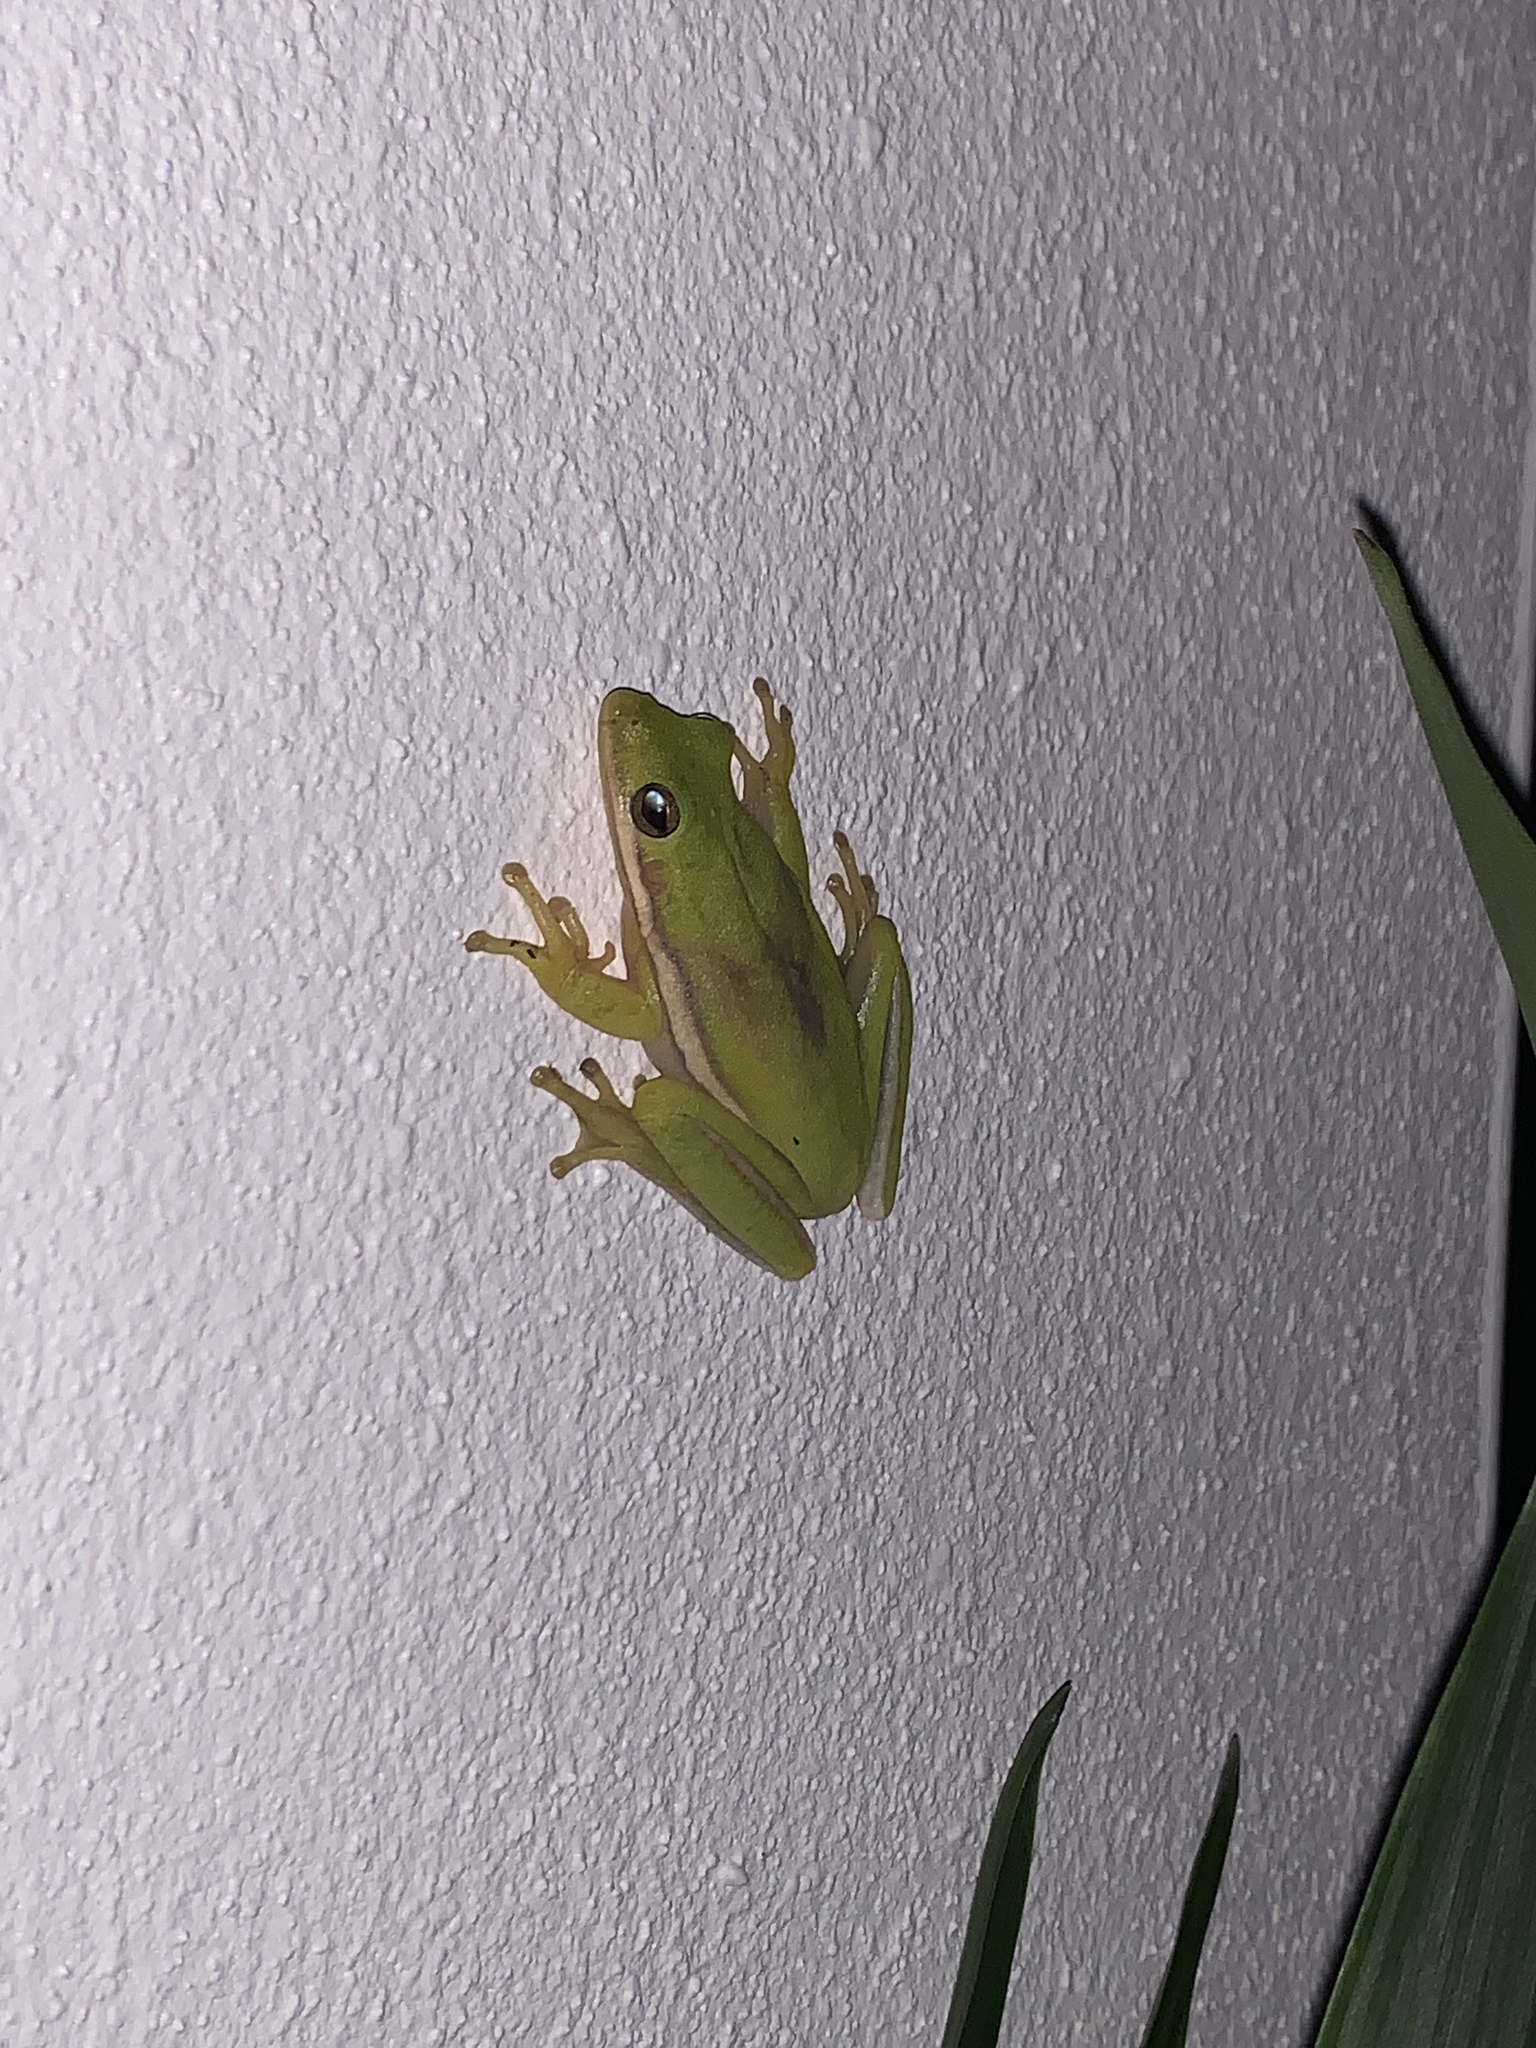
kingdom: Animalia
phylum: Chordata
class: Amphibia
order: Anura
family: Hylidae
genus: Dryophytes
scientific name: Dryophytes cinereus
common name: Green treefrog
